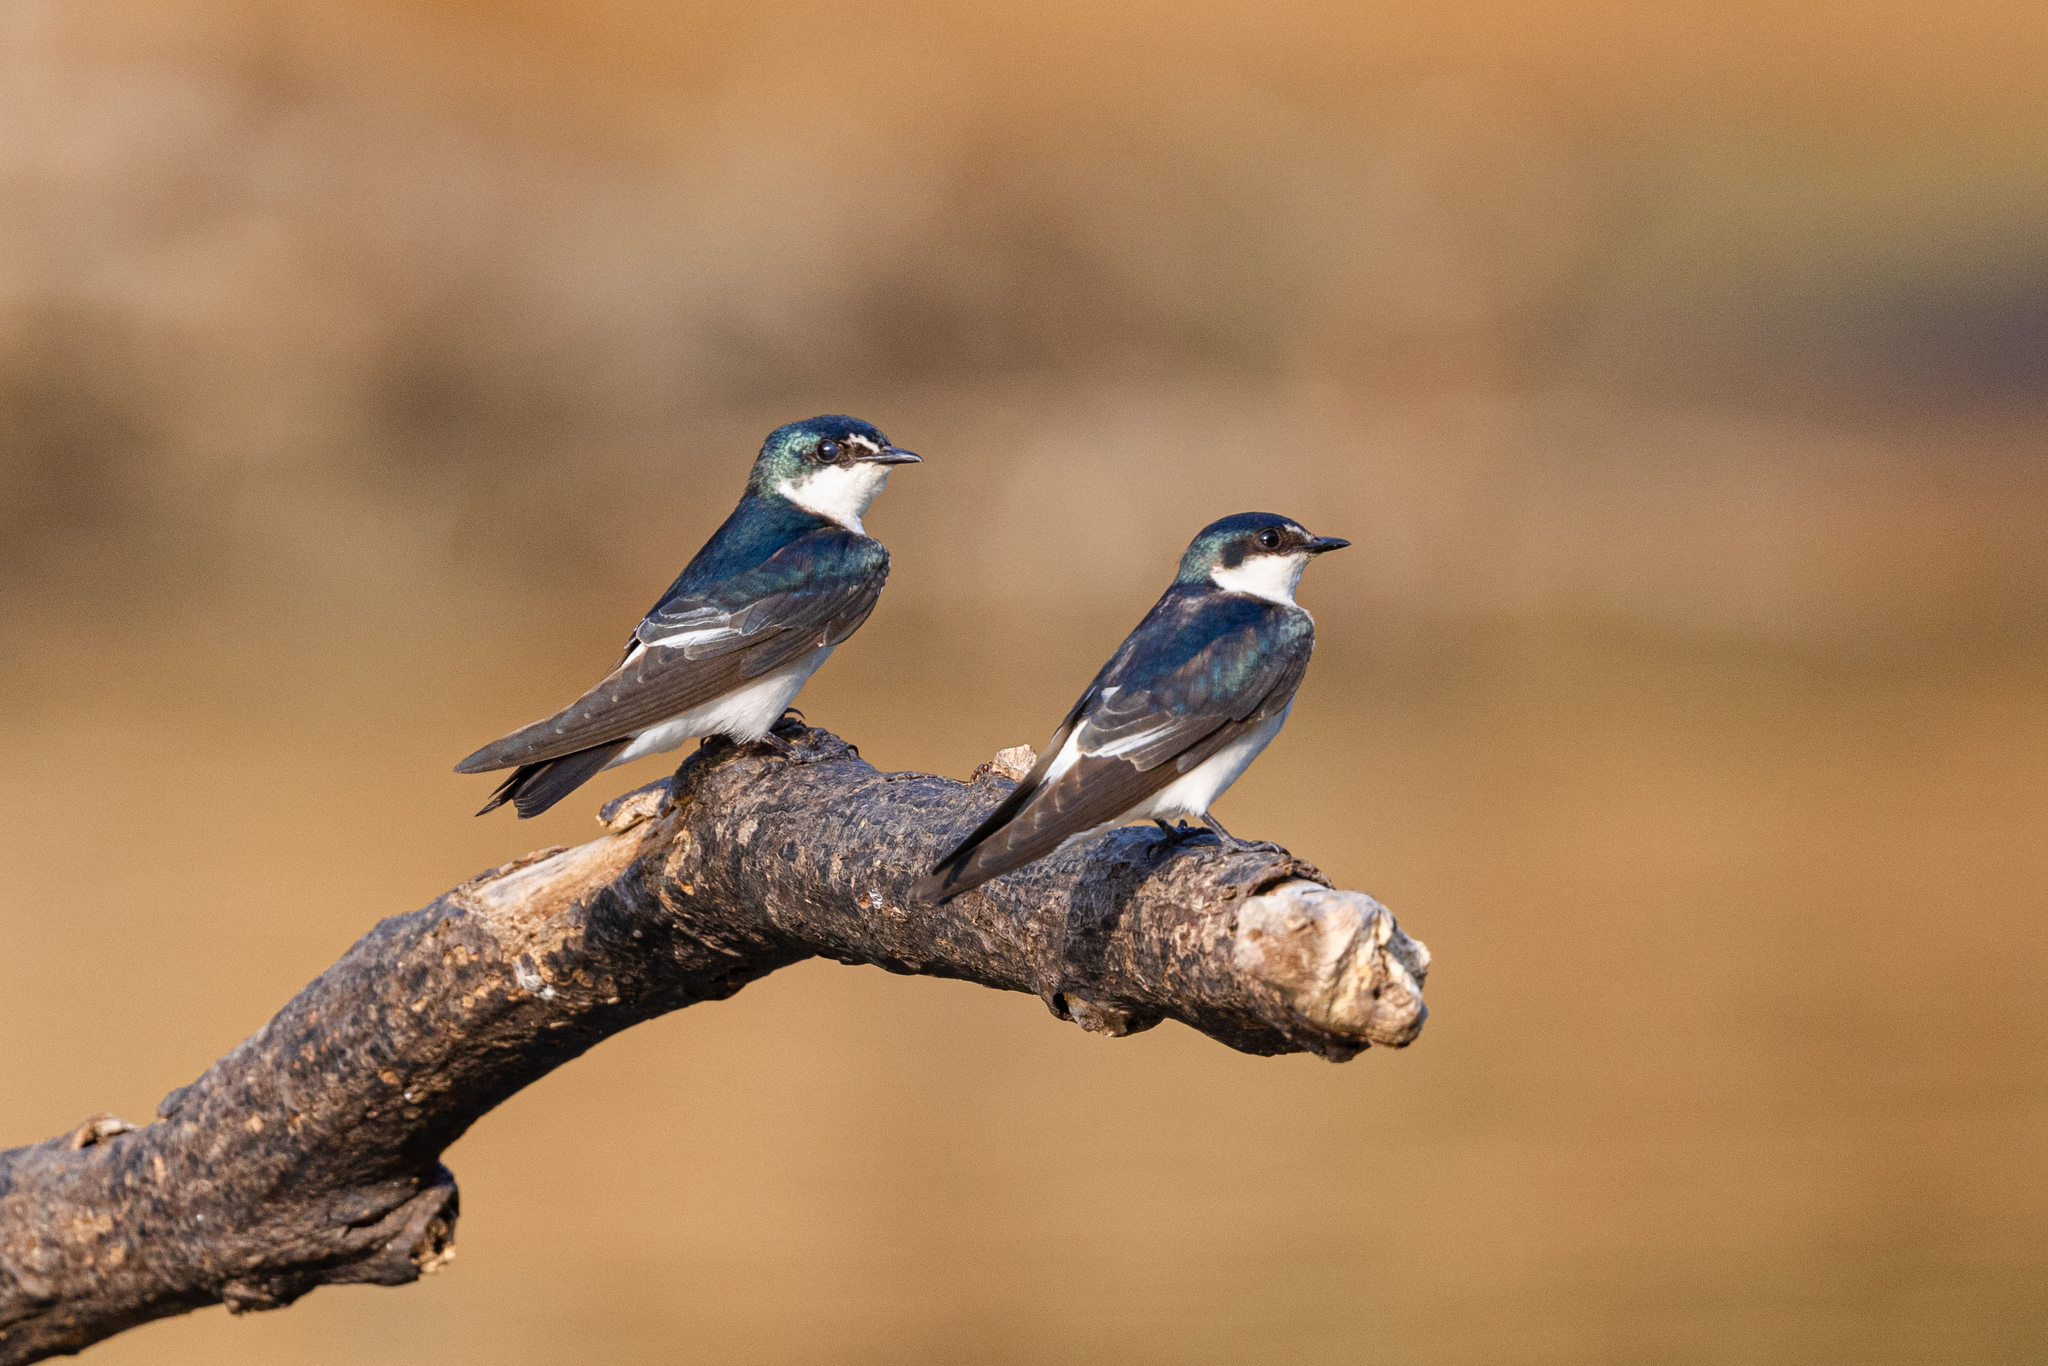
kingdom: Animalia
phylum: Chordata
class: Aves
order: Passeriformes
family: Hirundinidae
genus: Tachycineta
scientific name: Tachycineta albilinea
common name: Mangrove swallow
